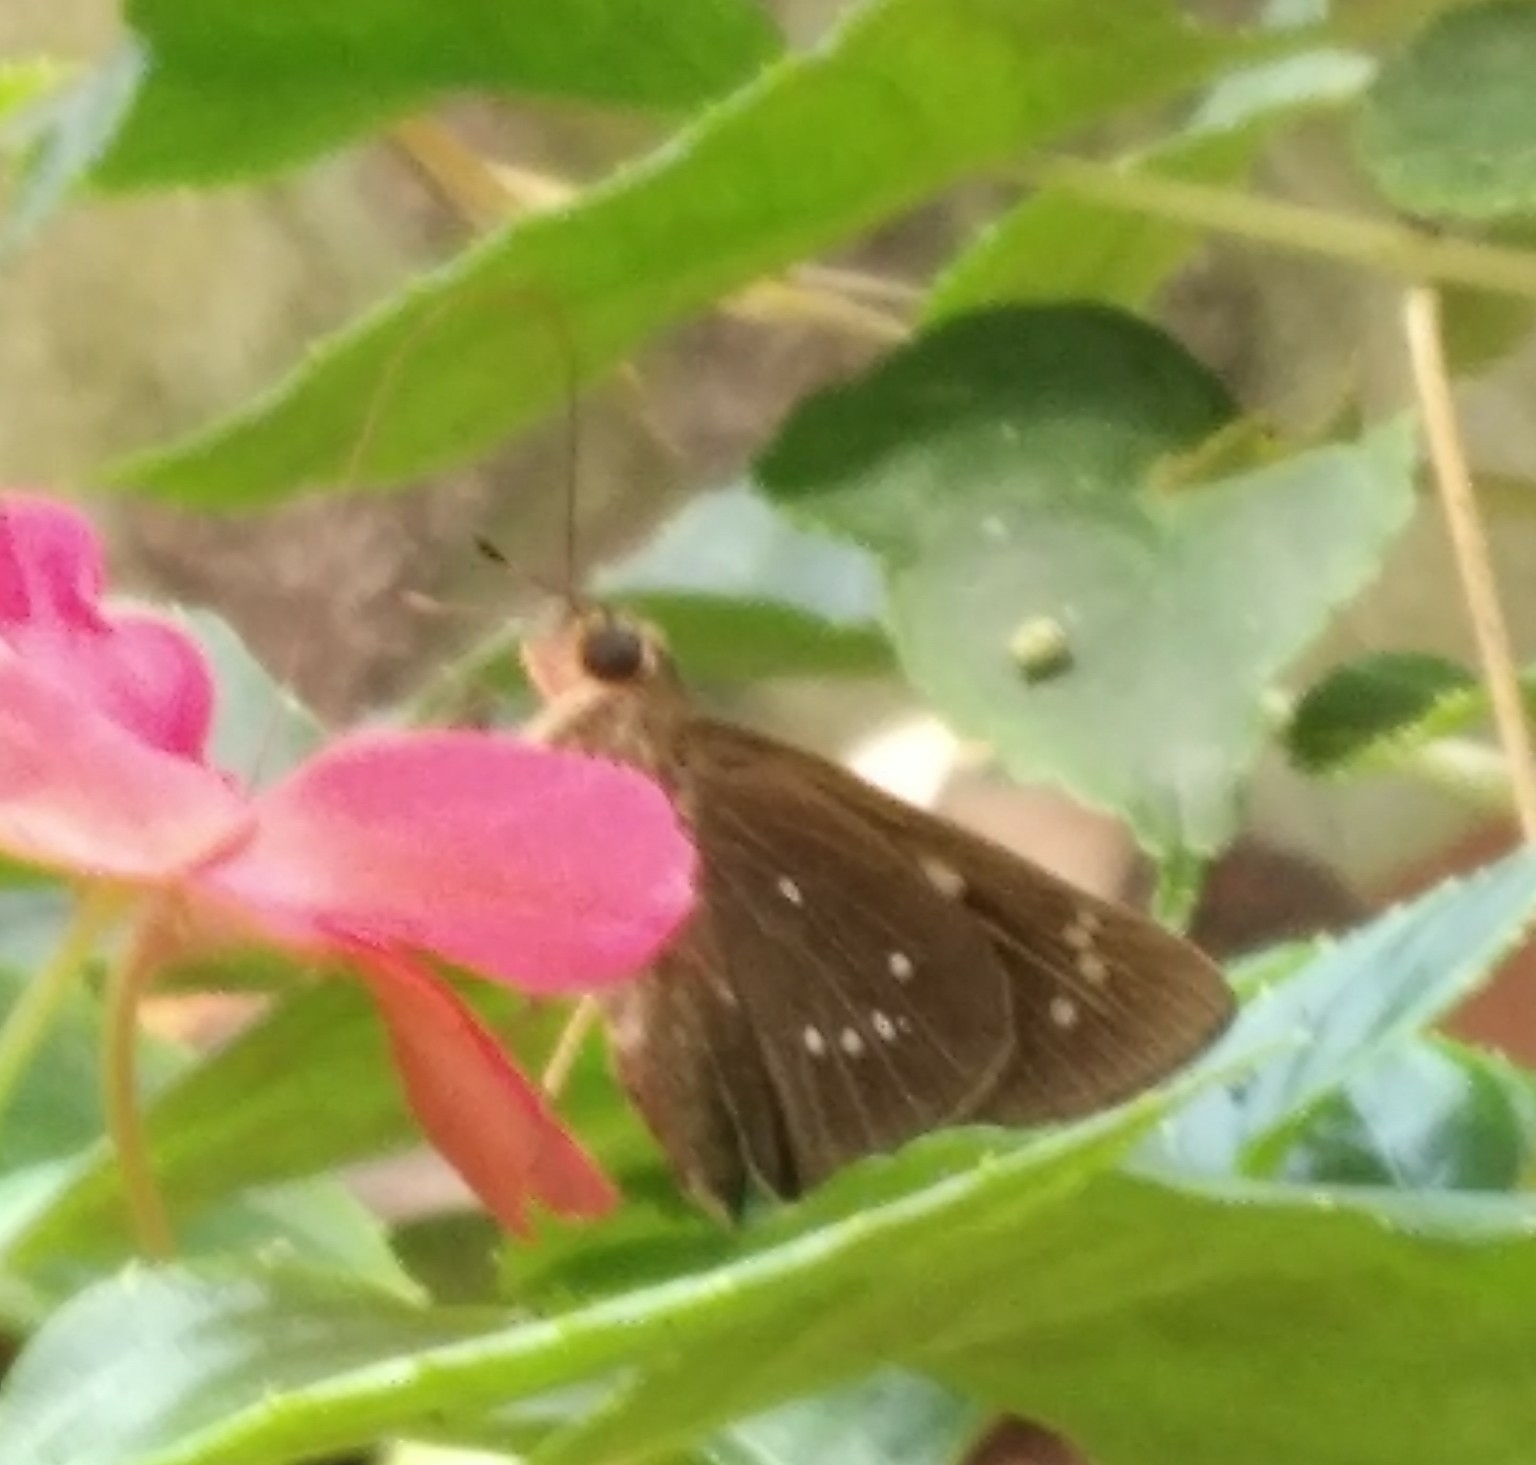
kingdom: Animalia
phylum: Arthropoda
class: Insecta
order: Lepidoptera
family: Hesperiidae
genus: Pelopidas
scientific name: Pelopidas conjuncta
